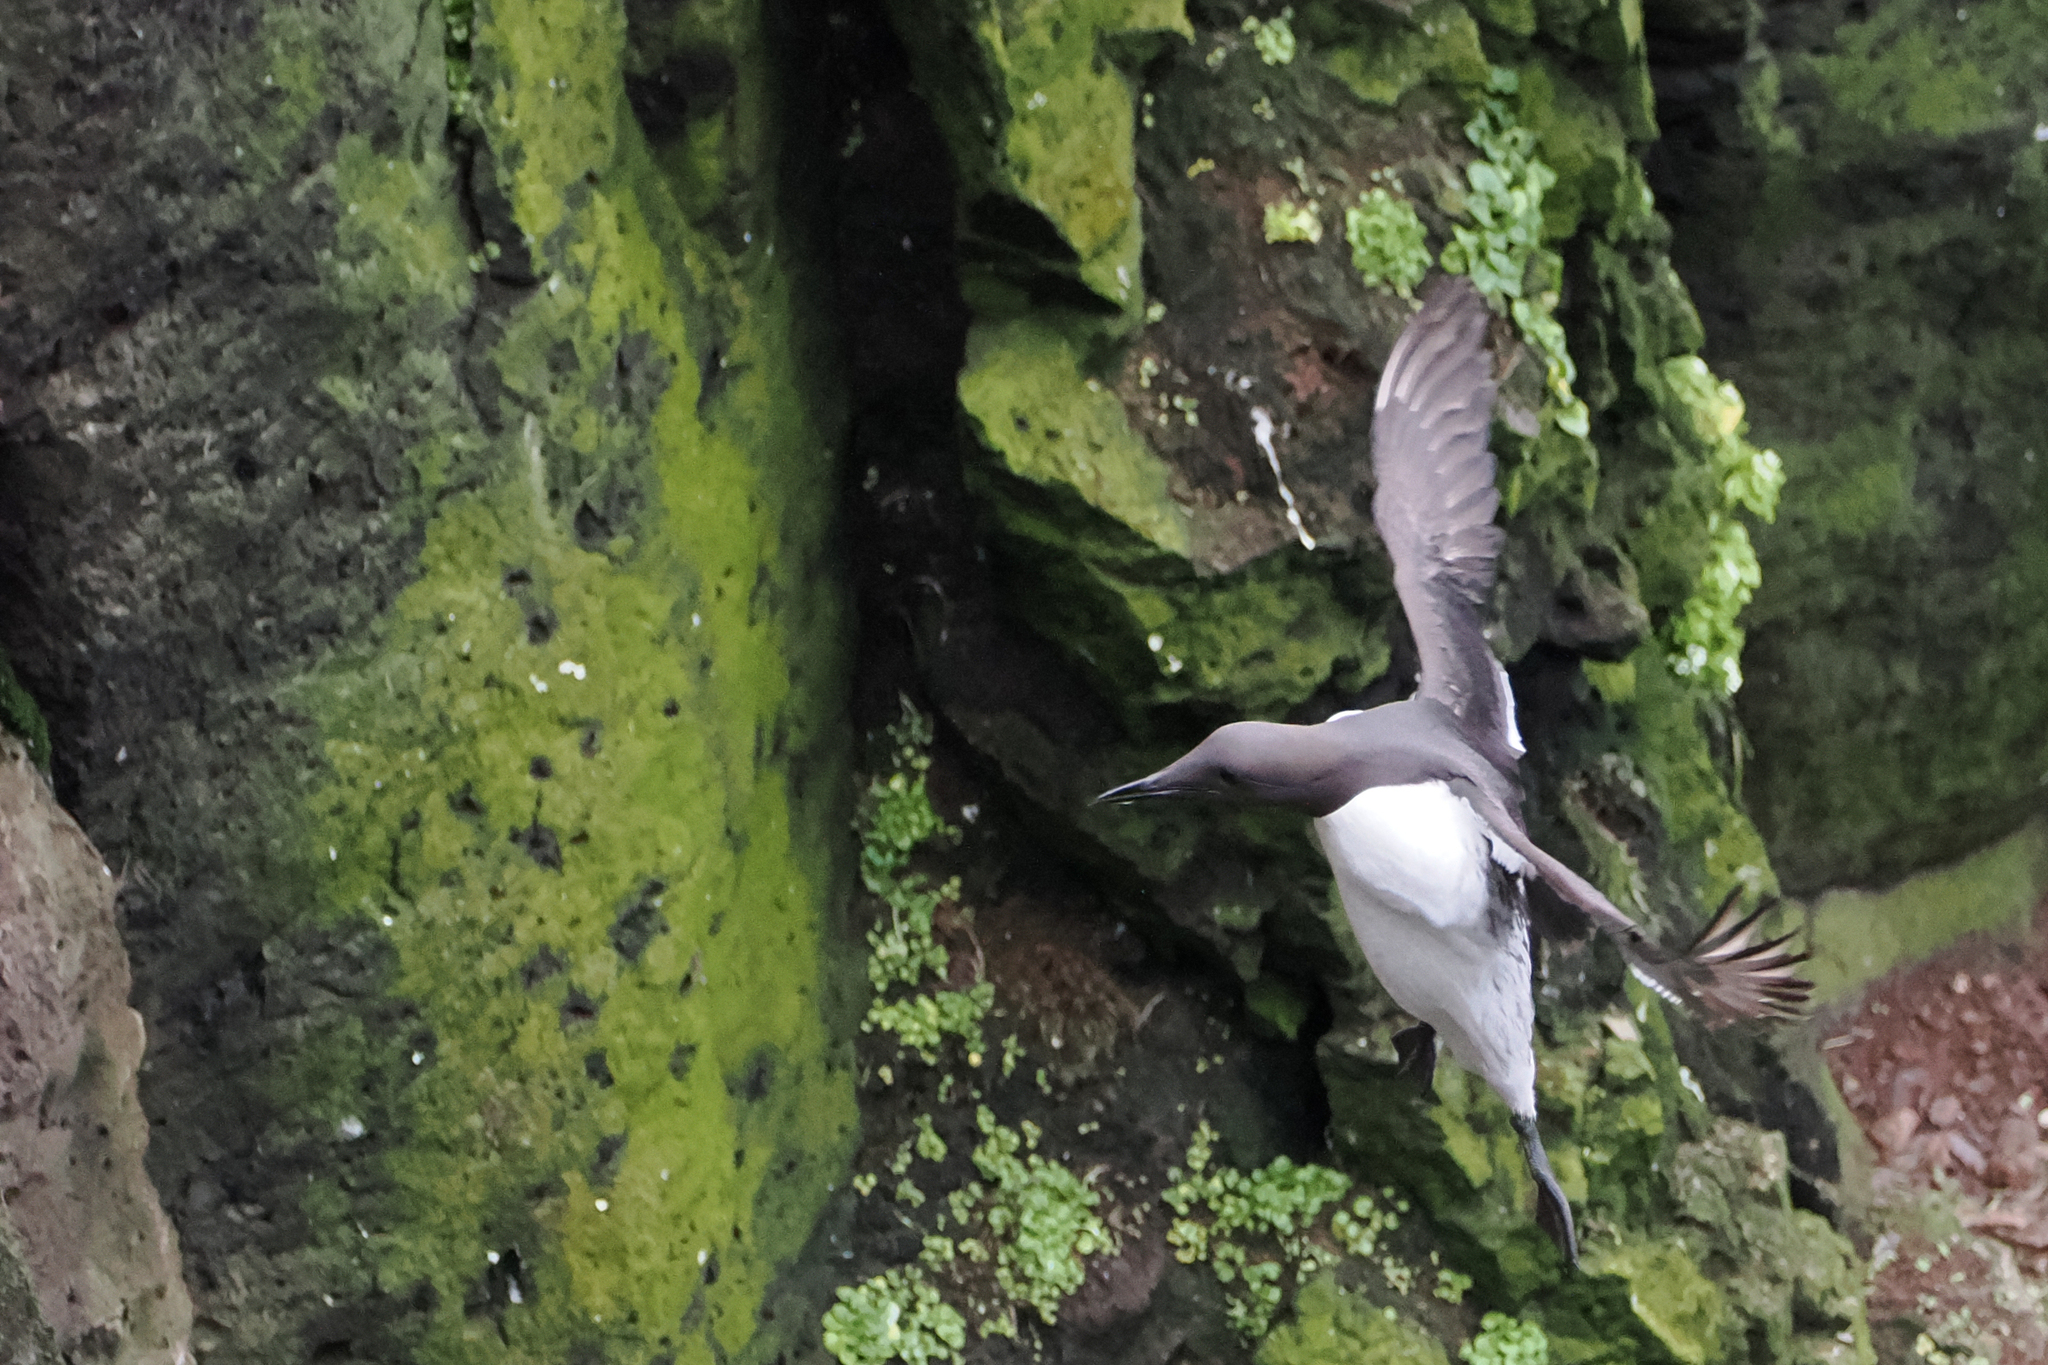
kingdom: Animalia
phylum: Chordata
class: Aves
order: Charadriiformes
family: Alcidae
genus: Uria
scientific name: Uria aalge
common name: Common murre
